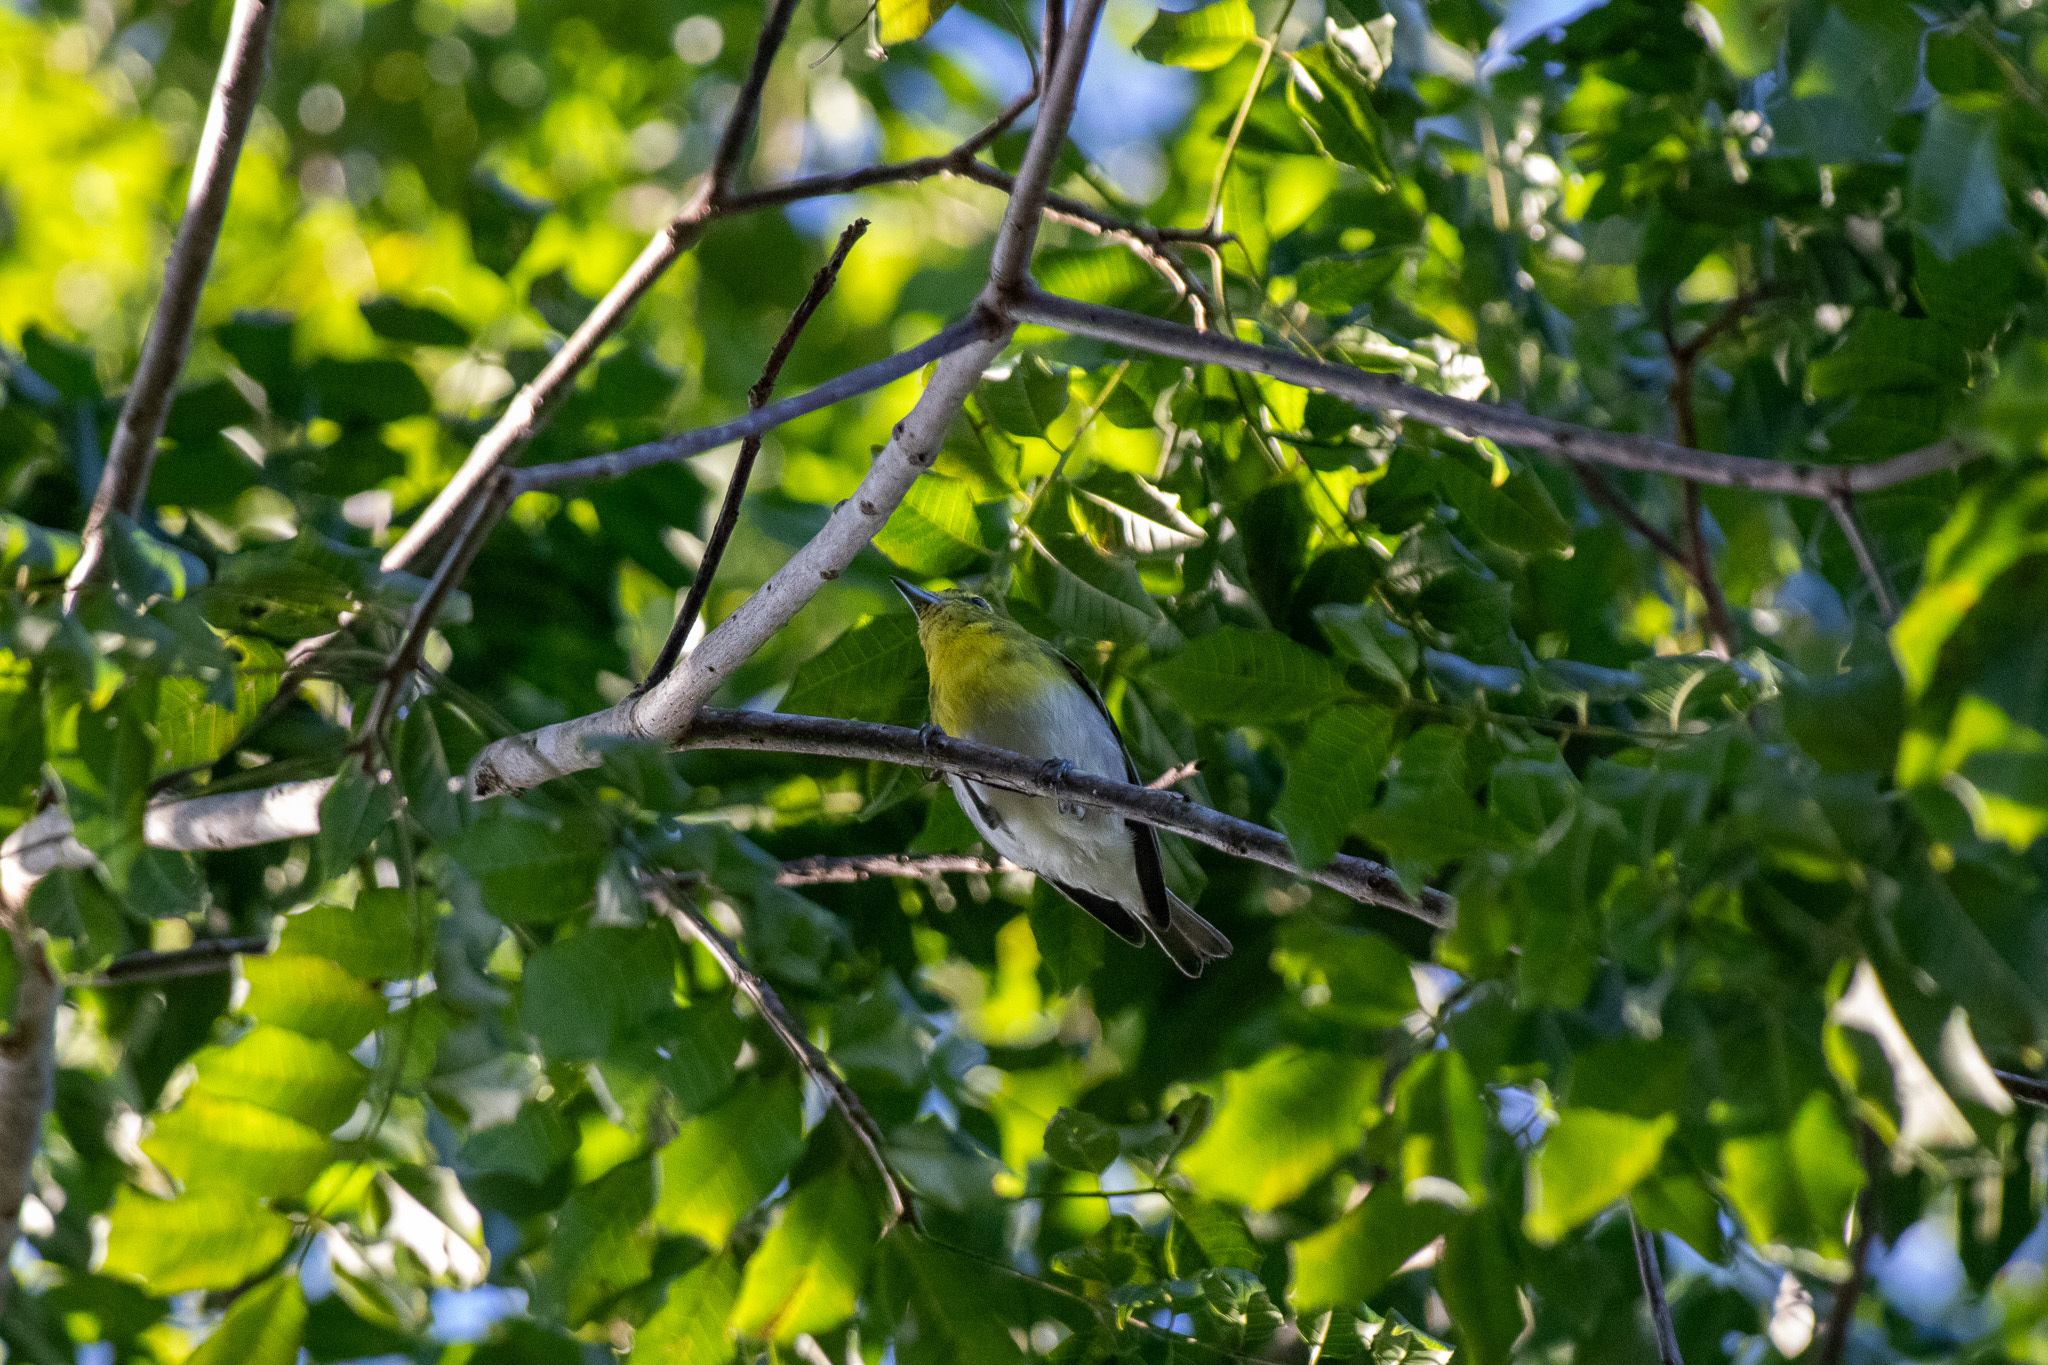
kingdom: Animalia
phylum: Chordata
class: Aves
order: Passeriformes
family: Vireonidae
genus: Vireo
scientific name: Vireo flavifrons
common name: Yellow-throated vireo
